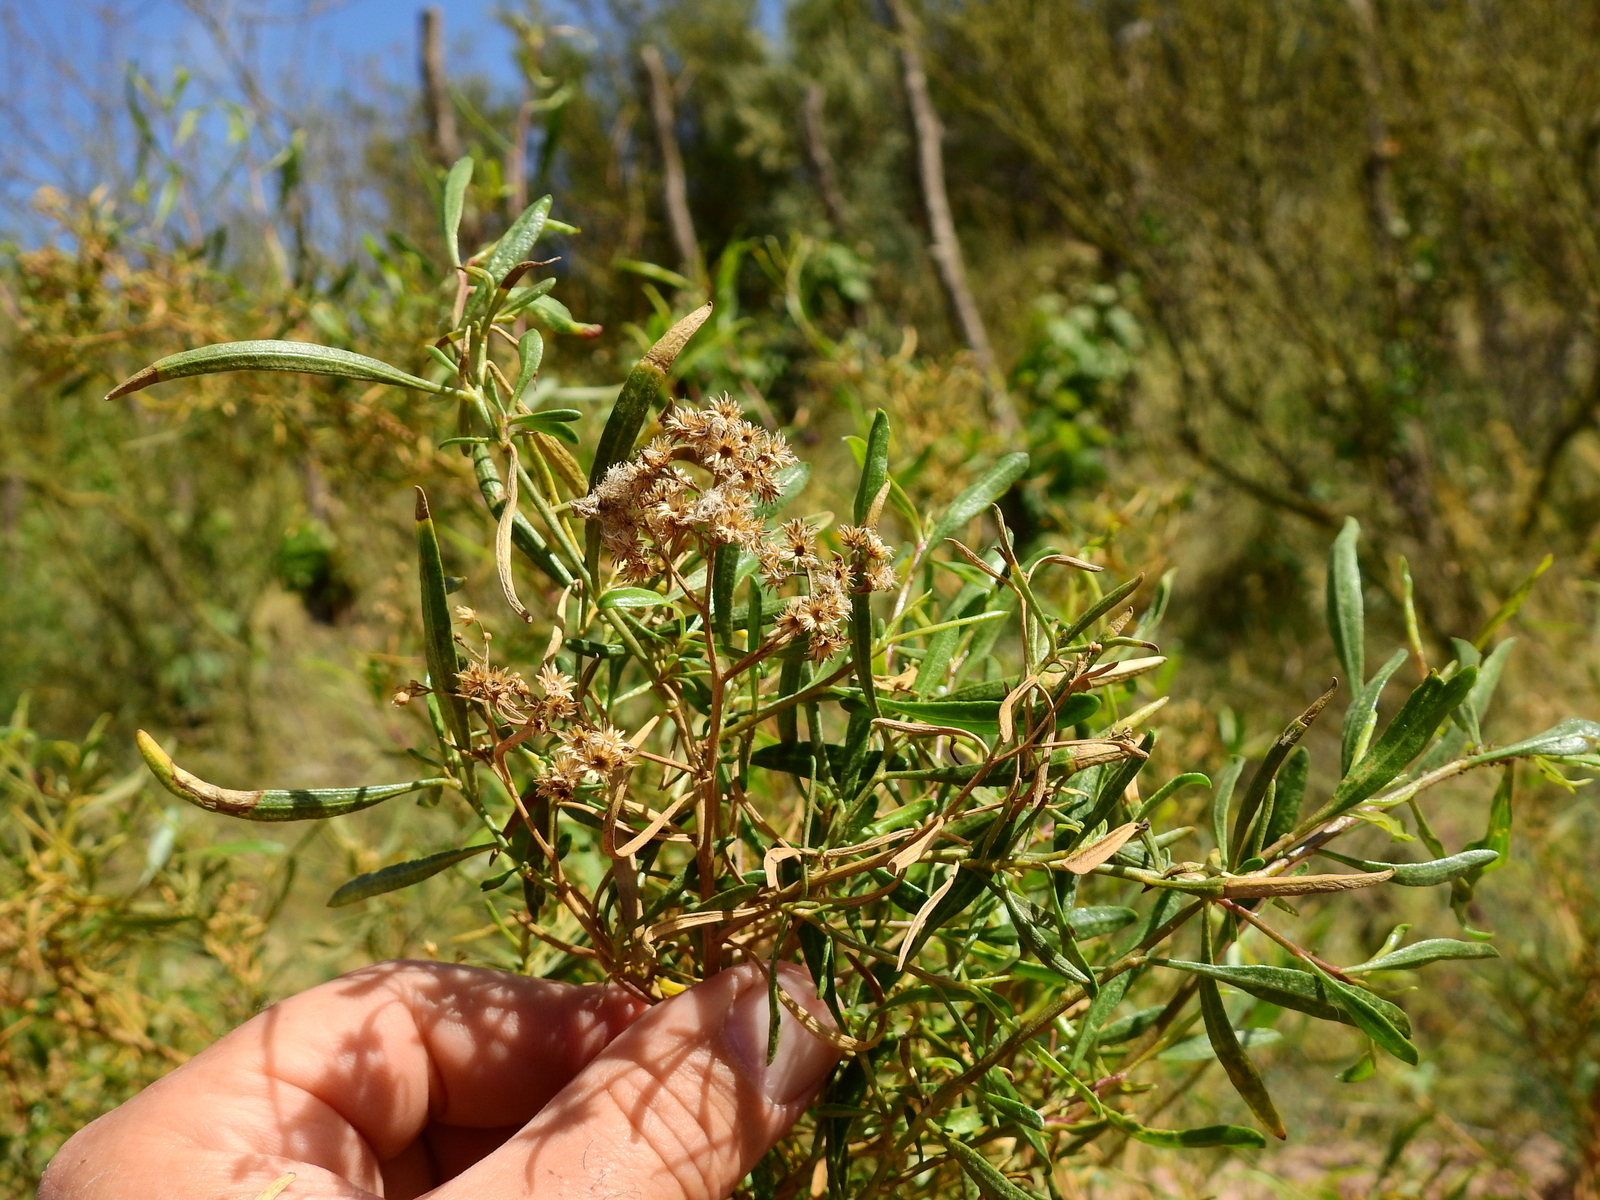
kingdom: Plantae
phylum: Tracheophyta
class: Magnoliopsida
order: Asterales
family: Asteraceae
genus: Baccharis
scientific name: Baccharis salicifolia
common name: Sticky baccharis
